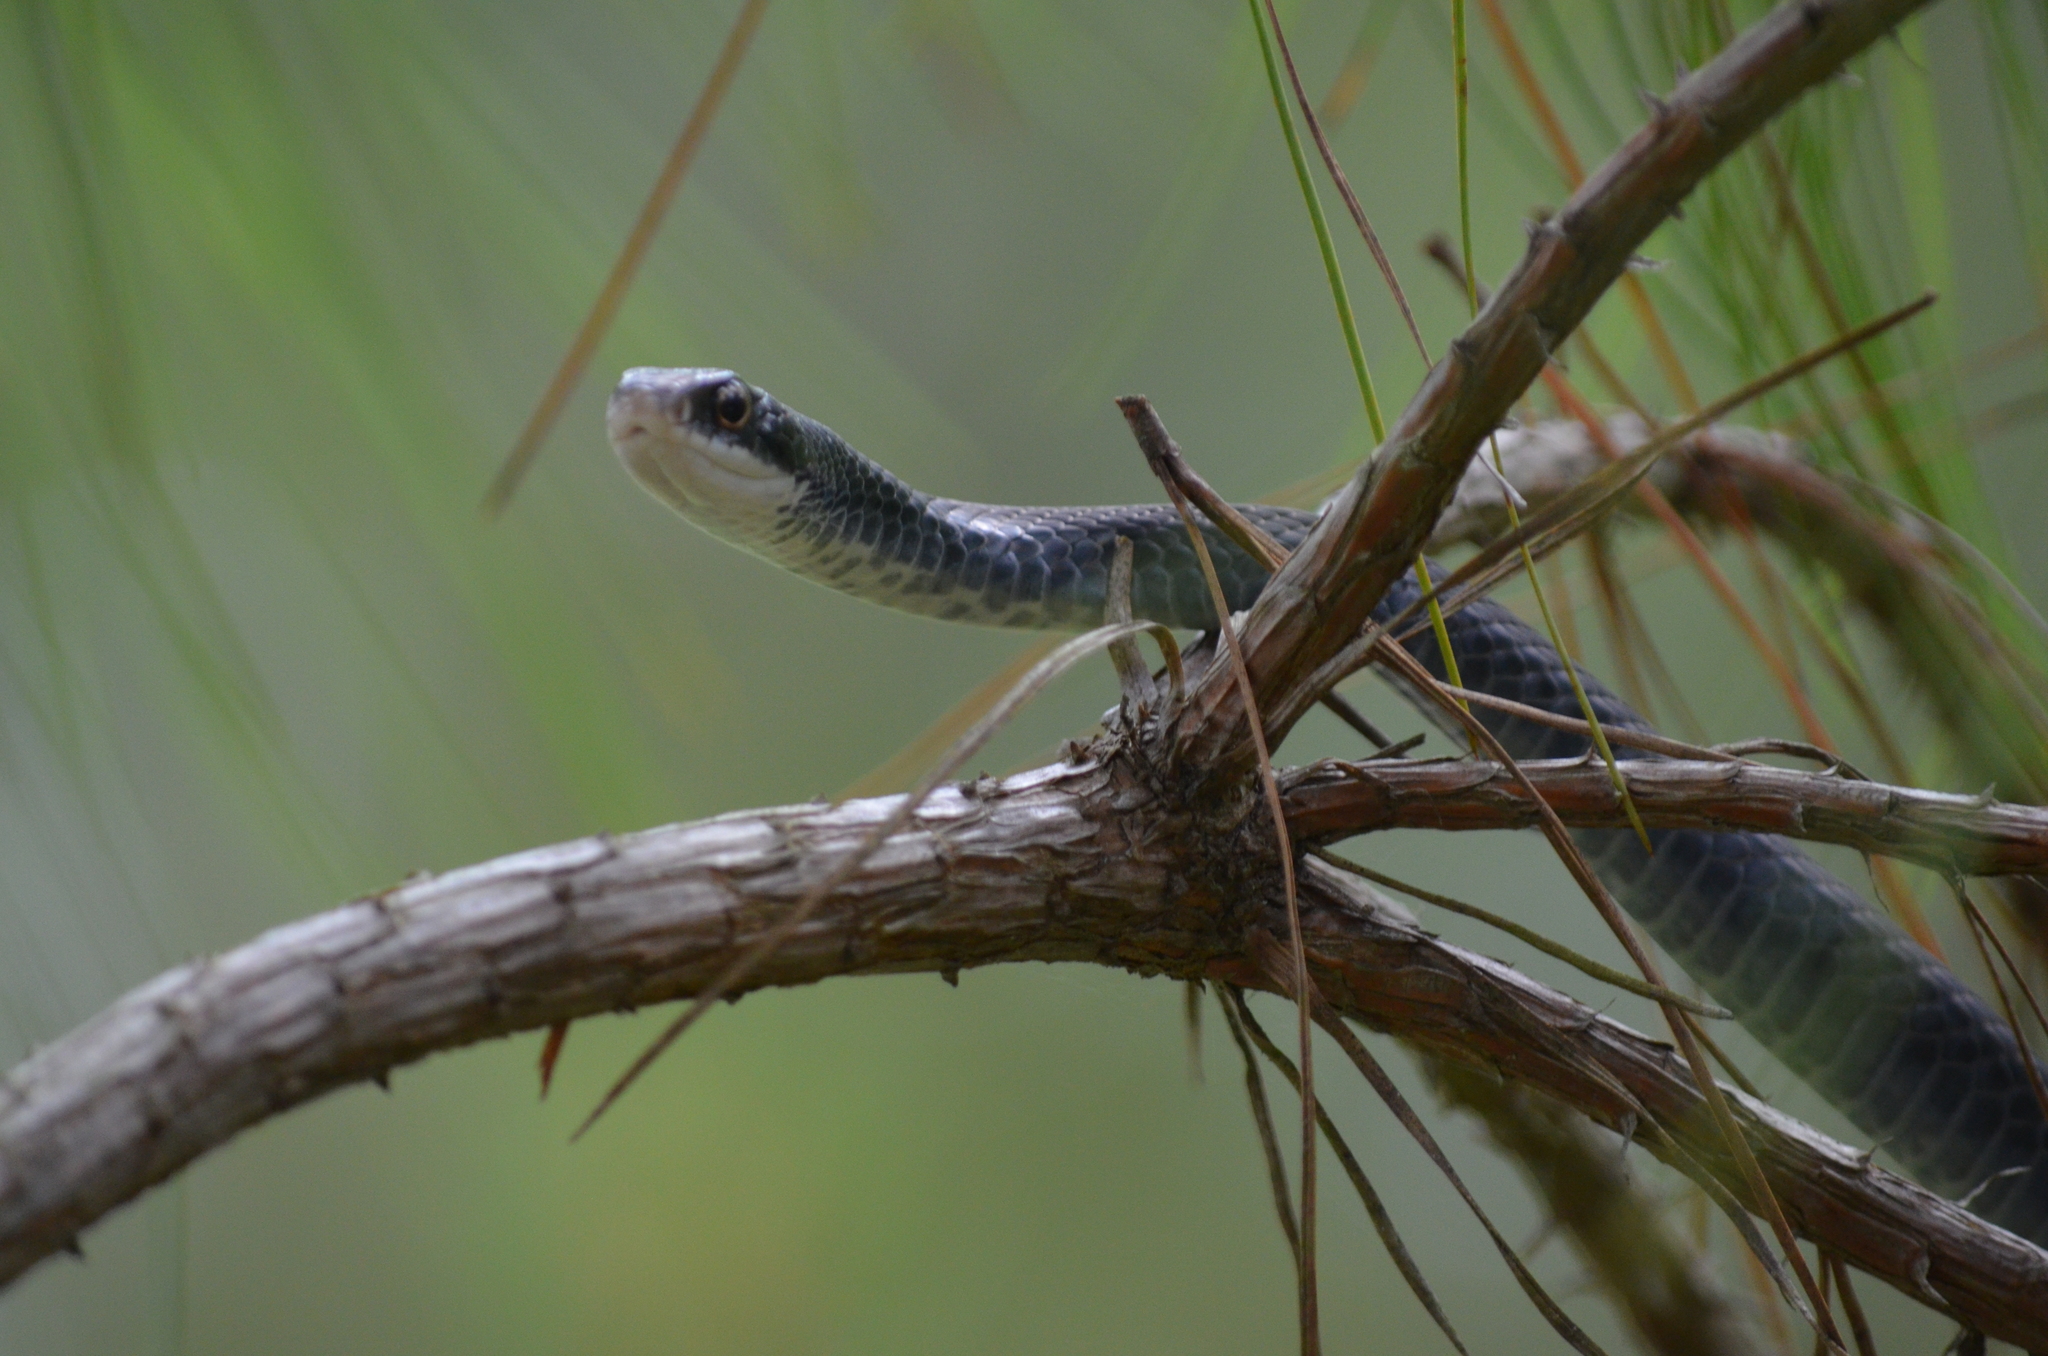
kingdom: Animalia
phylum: Chordata
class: Squamata
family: Colubridae
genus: Coluber
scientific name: Coluber constrictor
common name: Eastern racer
